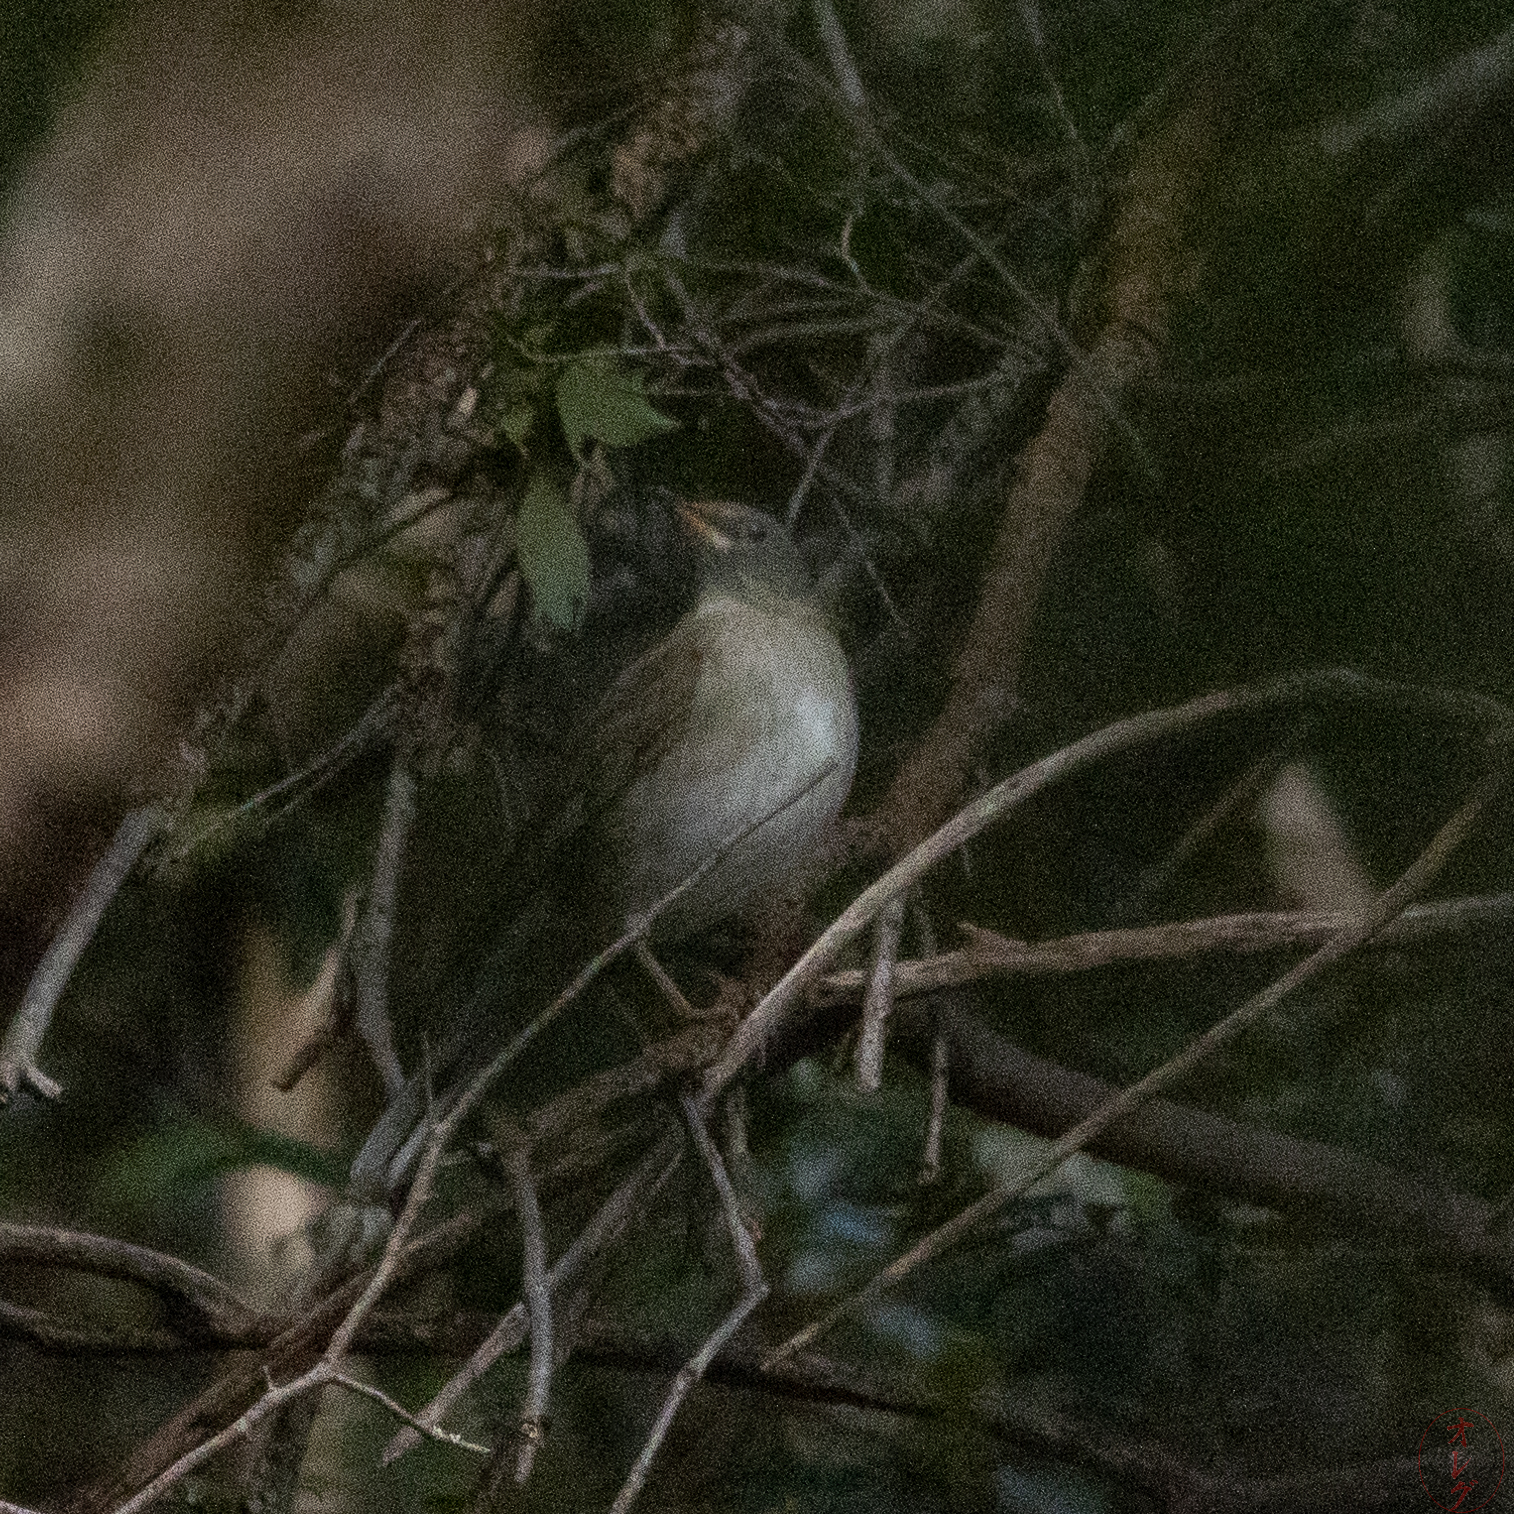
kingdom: Animalia
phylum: Chordata
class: Aves
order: Passeriformes
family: Turdidae
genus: Turdus
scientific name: Turdus pallidus
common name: Pale thrush
